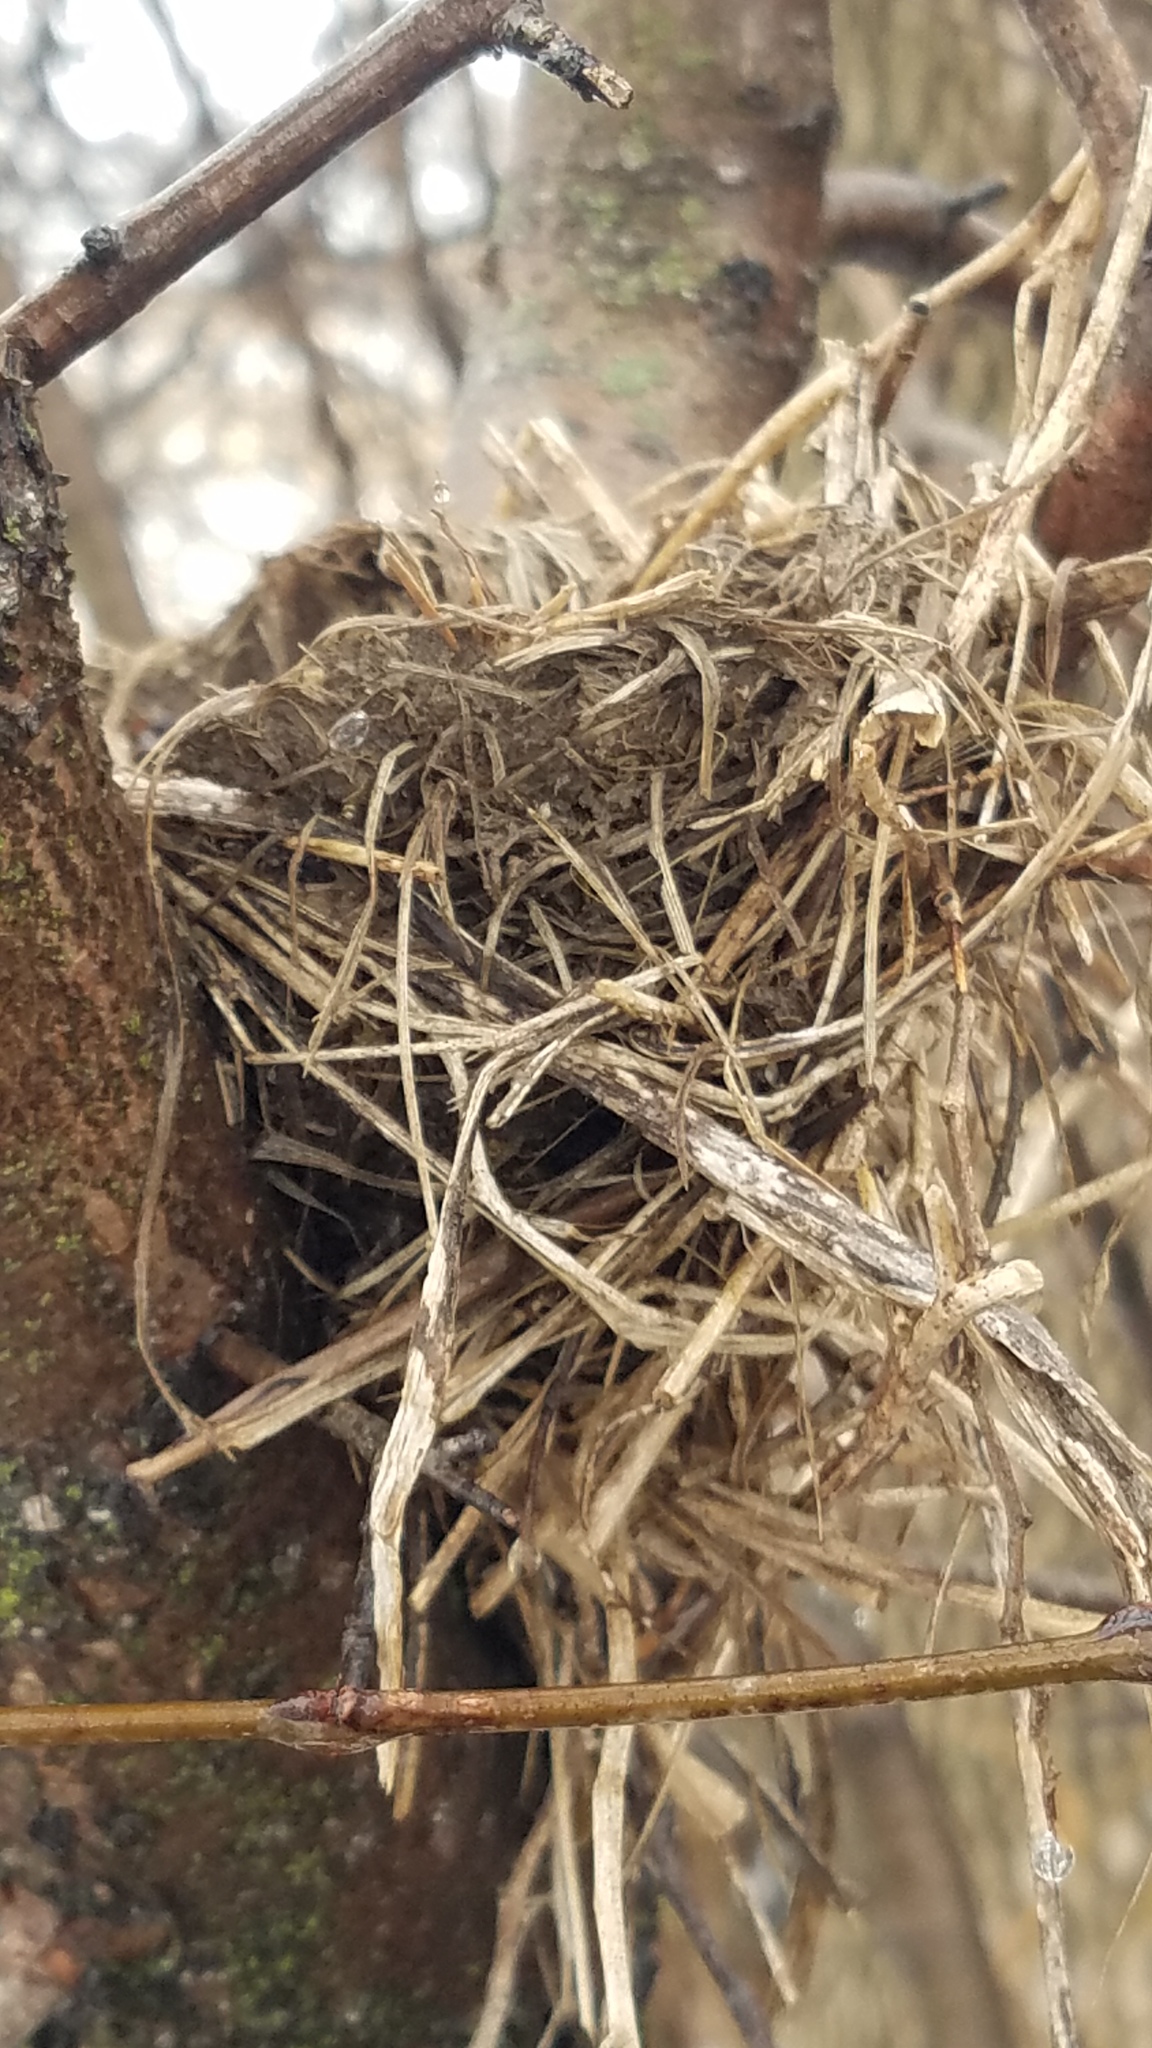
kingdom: Animalia
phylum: Chordata
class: Aves
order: Passeriformes
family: Turdidae
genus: Turdus
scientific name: Turdus migratorius
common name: American robin
